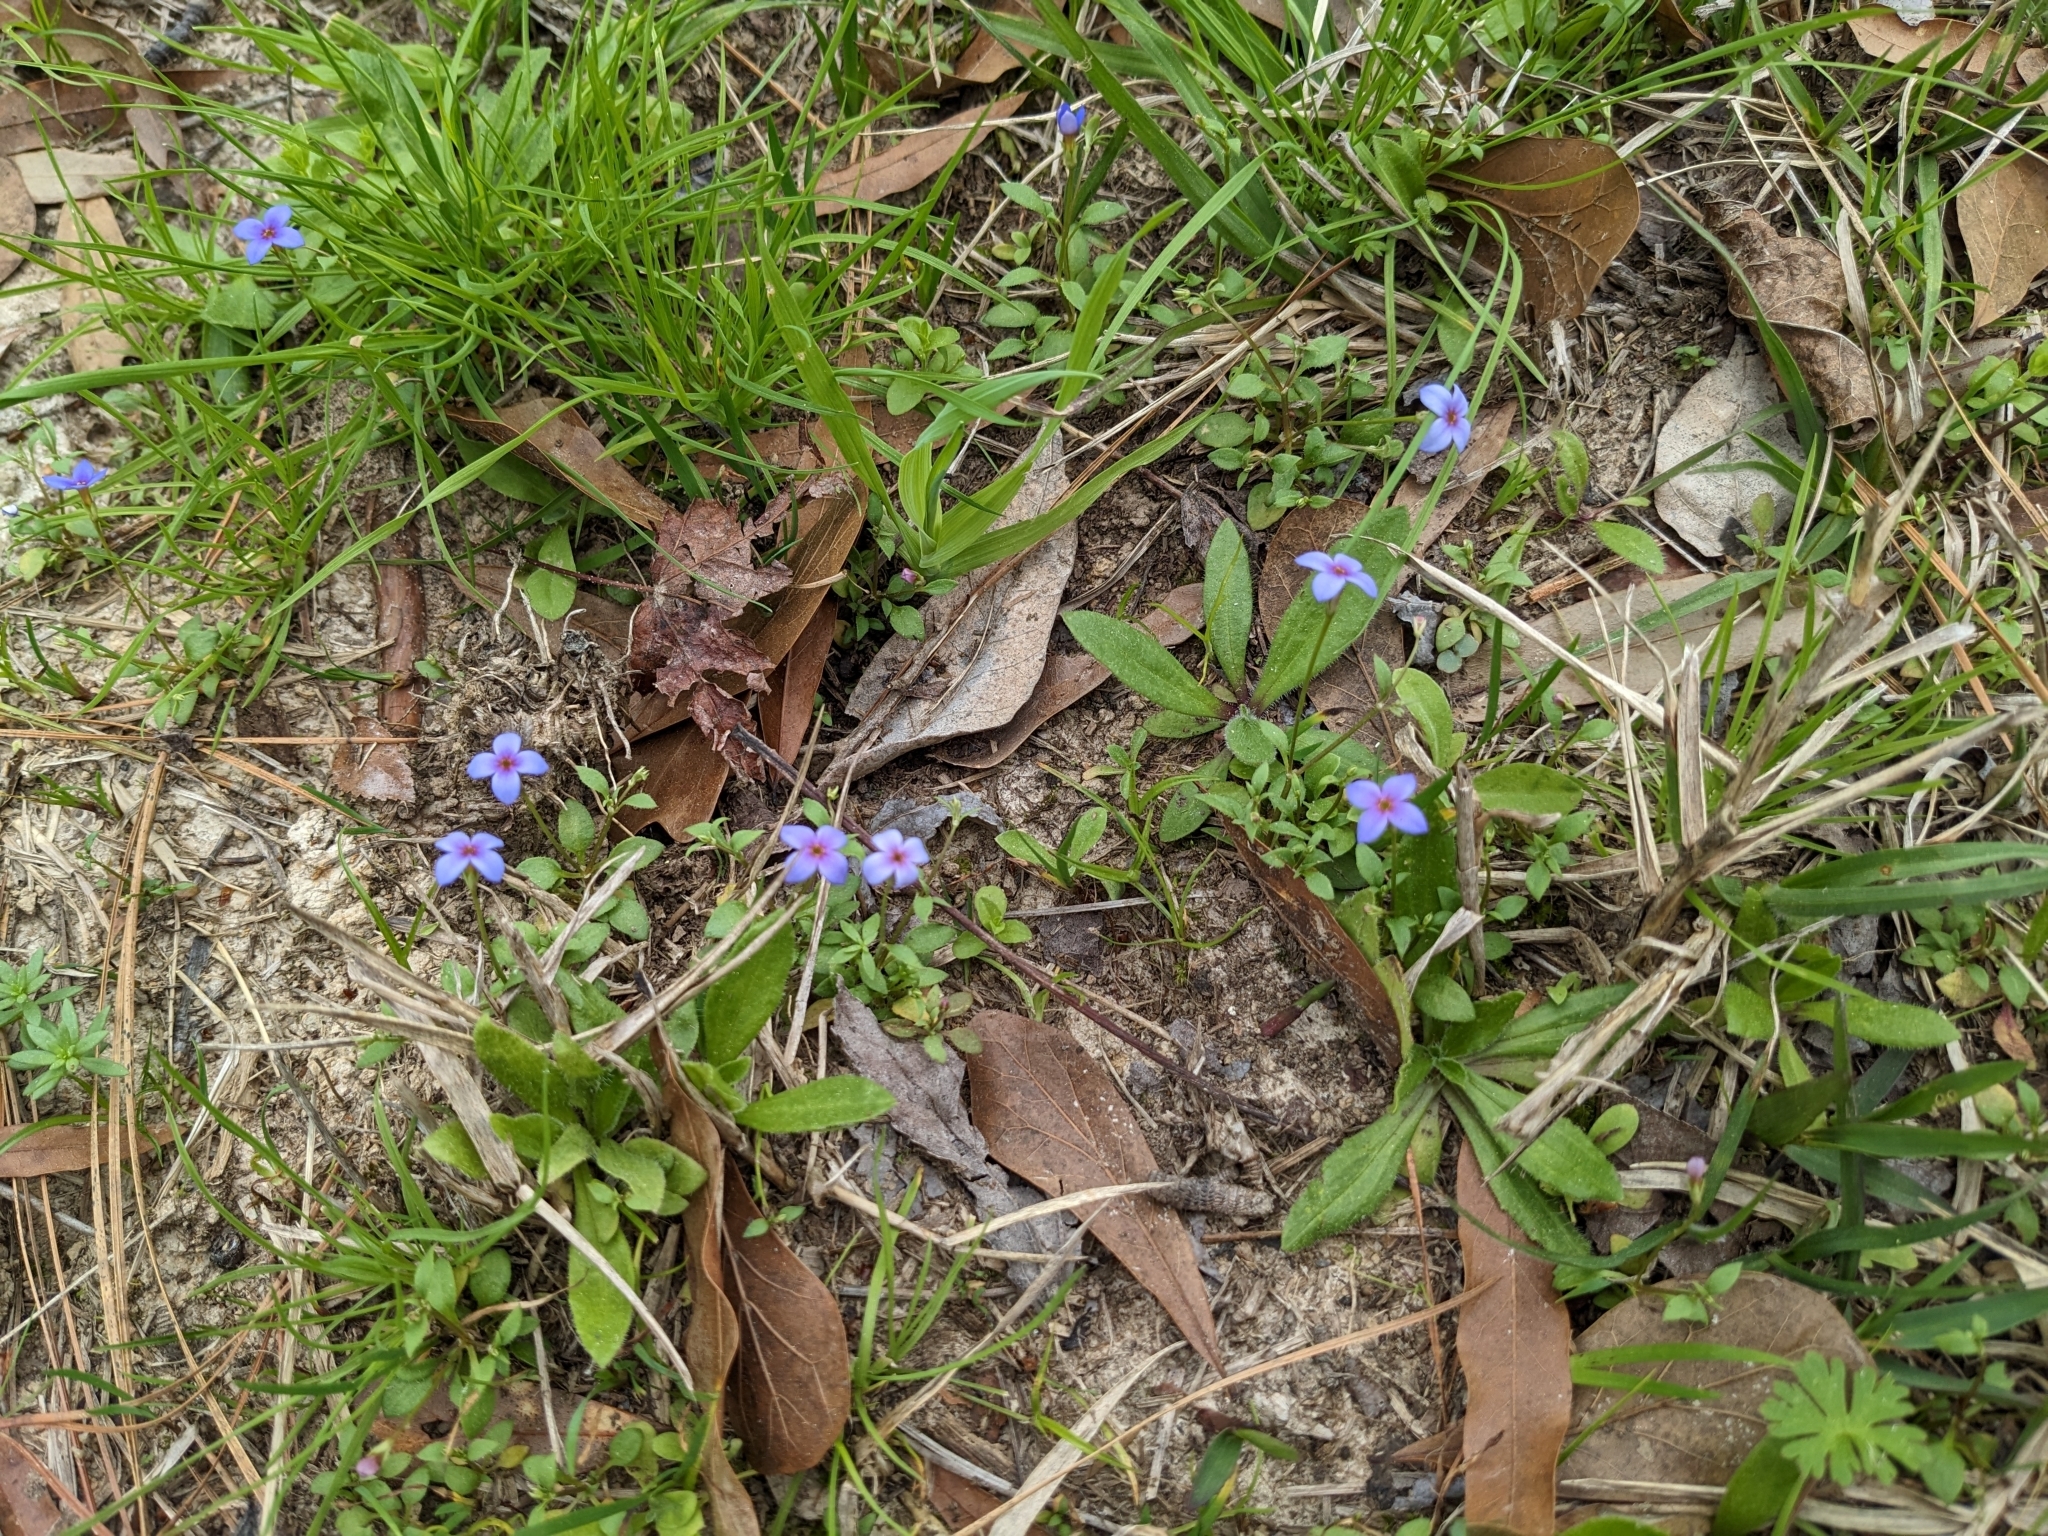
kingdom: Plantae
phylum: Tracheophyta
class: Magnoliopsida
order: Gentianales
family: Rubiaceae
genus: Houstonia
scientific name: Houstonia pusilla
